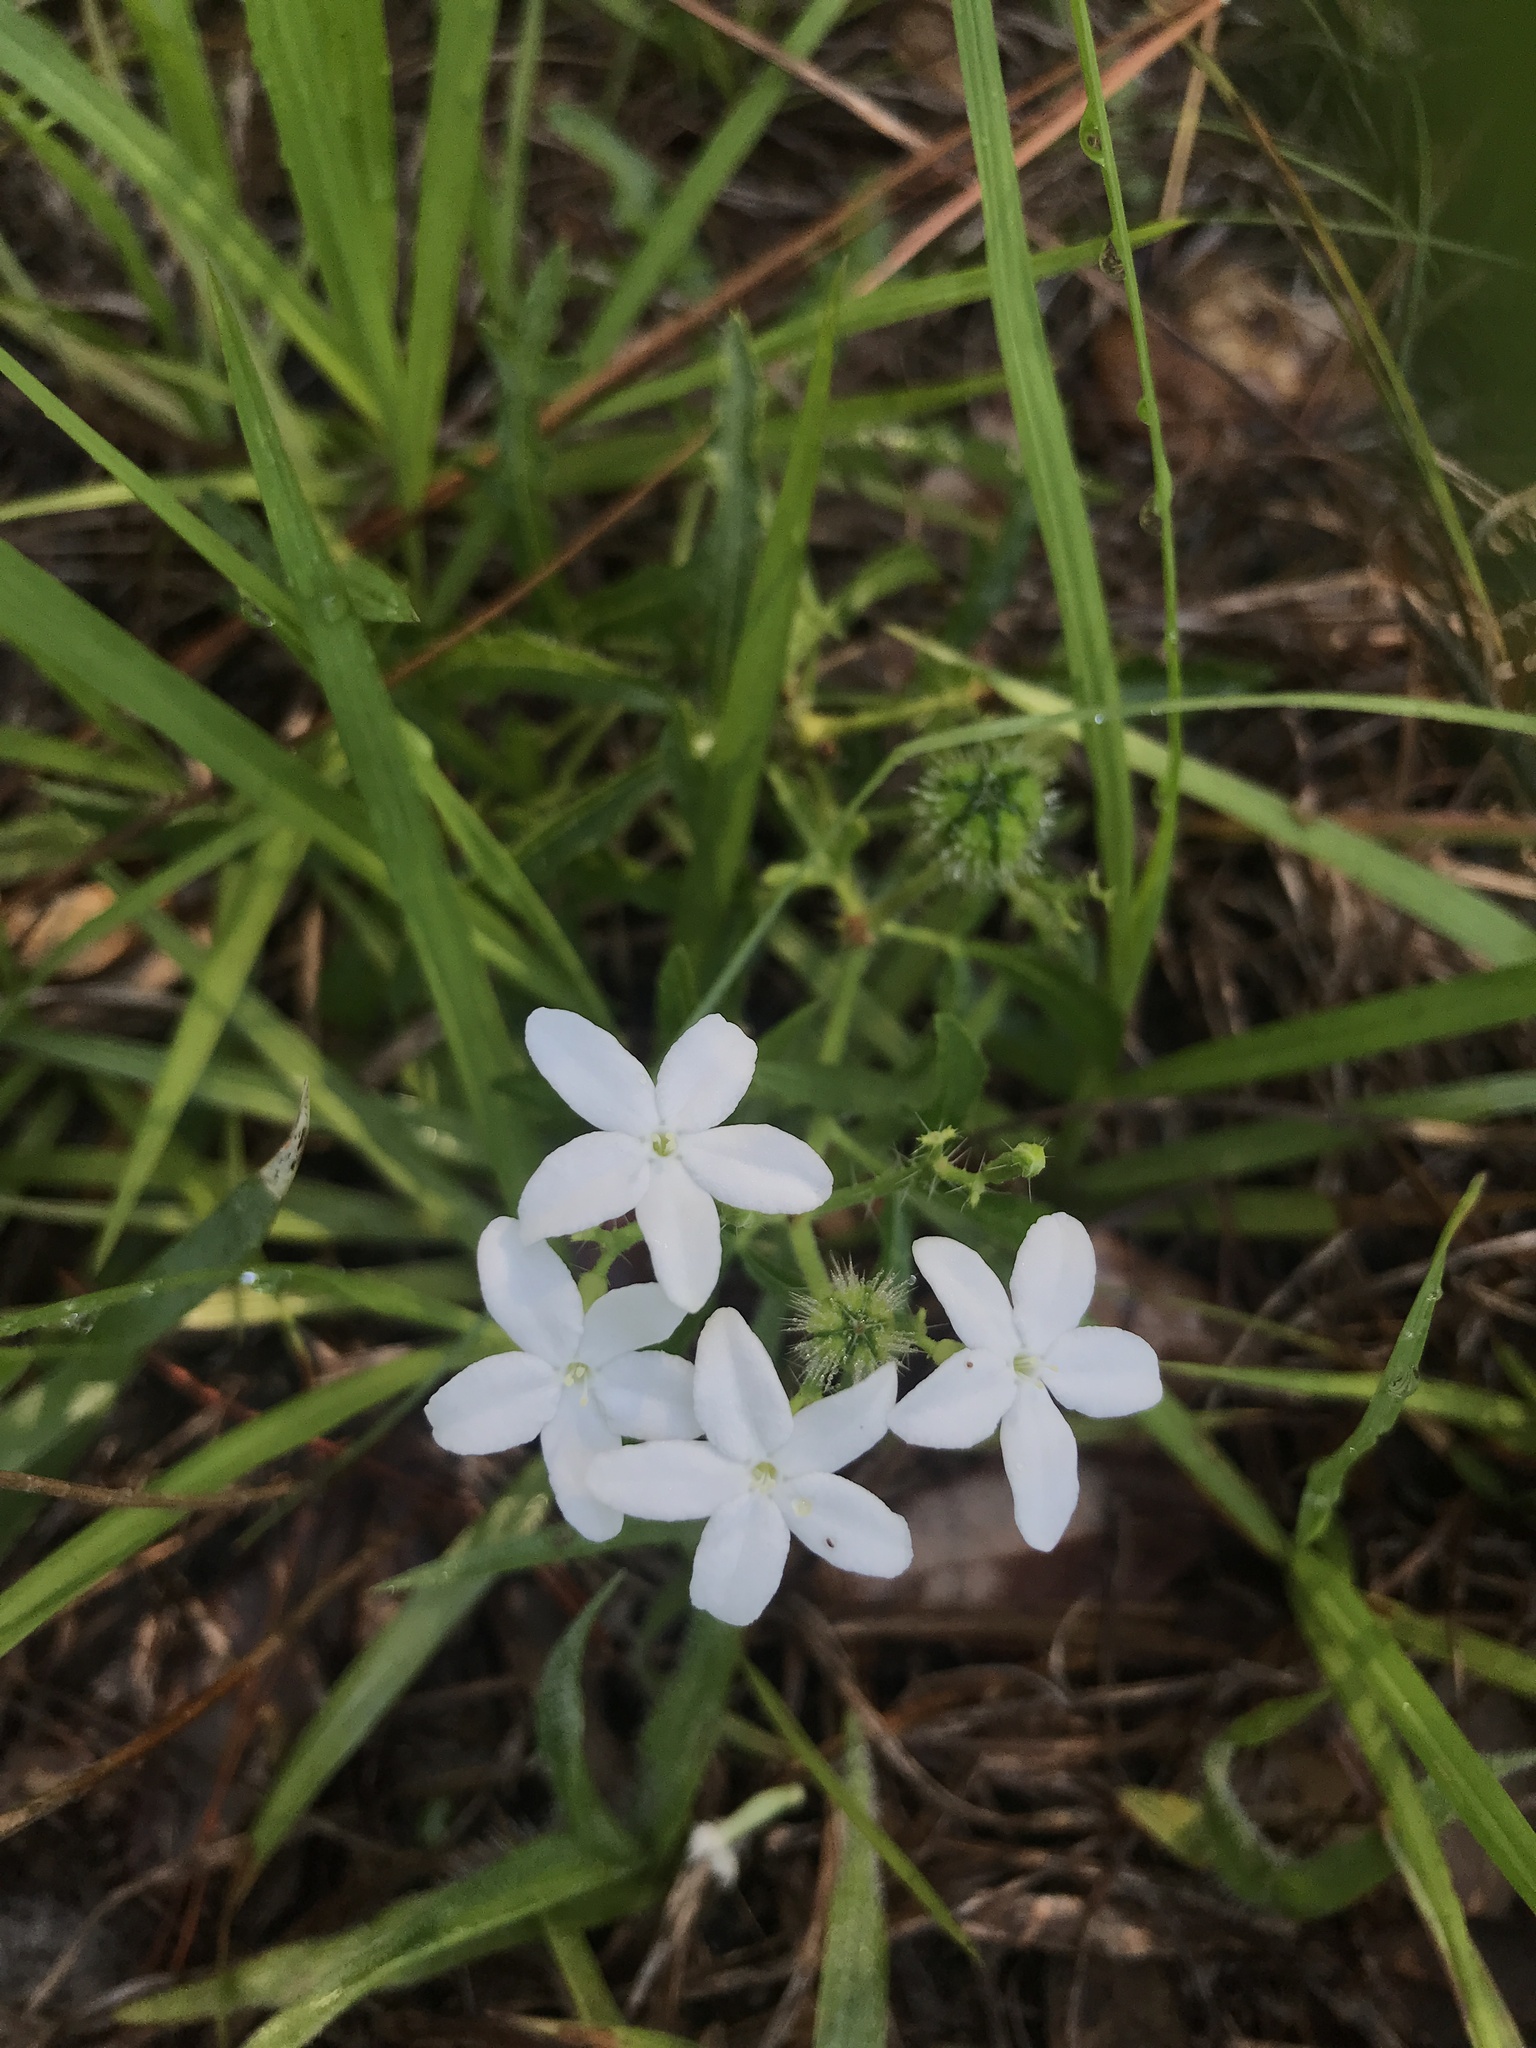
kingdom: Plantae
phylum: Tracheophyta
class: Magnoliopsida
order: Malpighiales
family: Euphorbiaceae
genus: Cnidoscolus
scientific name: Cnidoscolus stimulosus
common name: Bull-nettle
